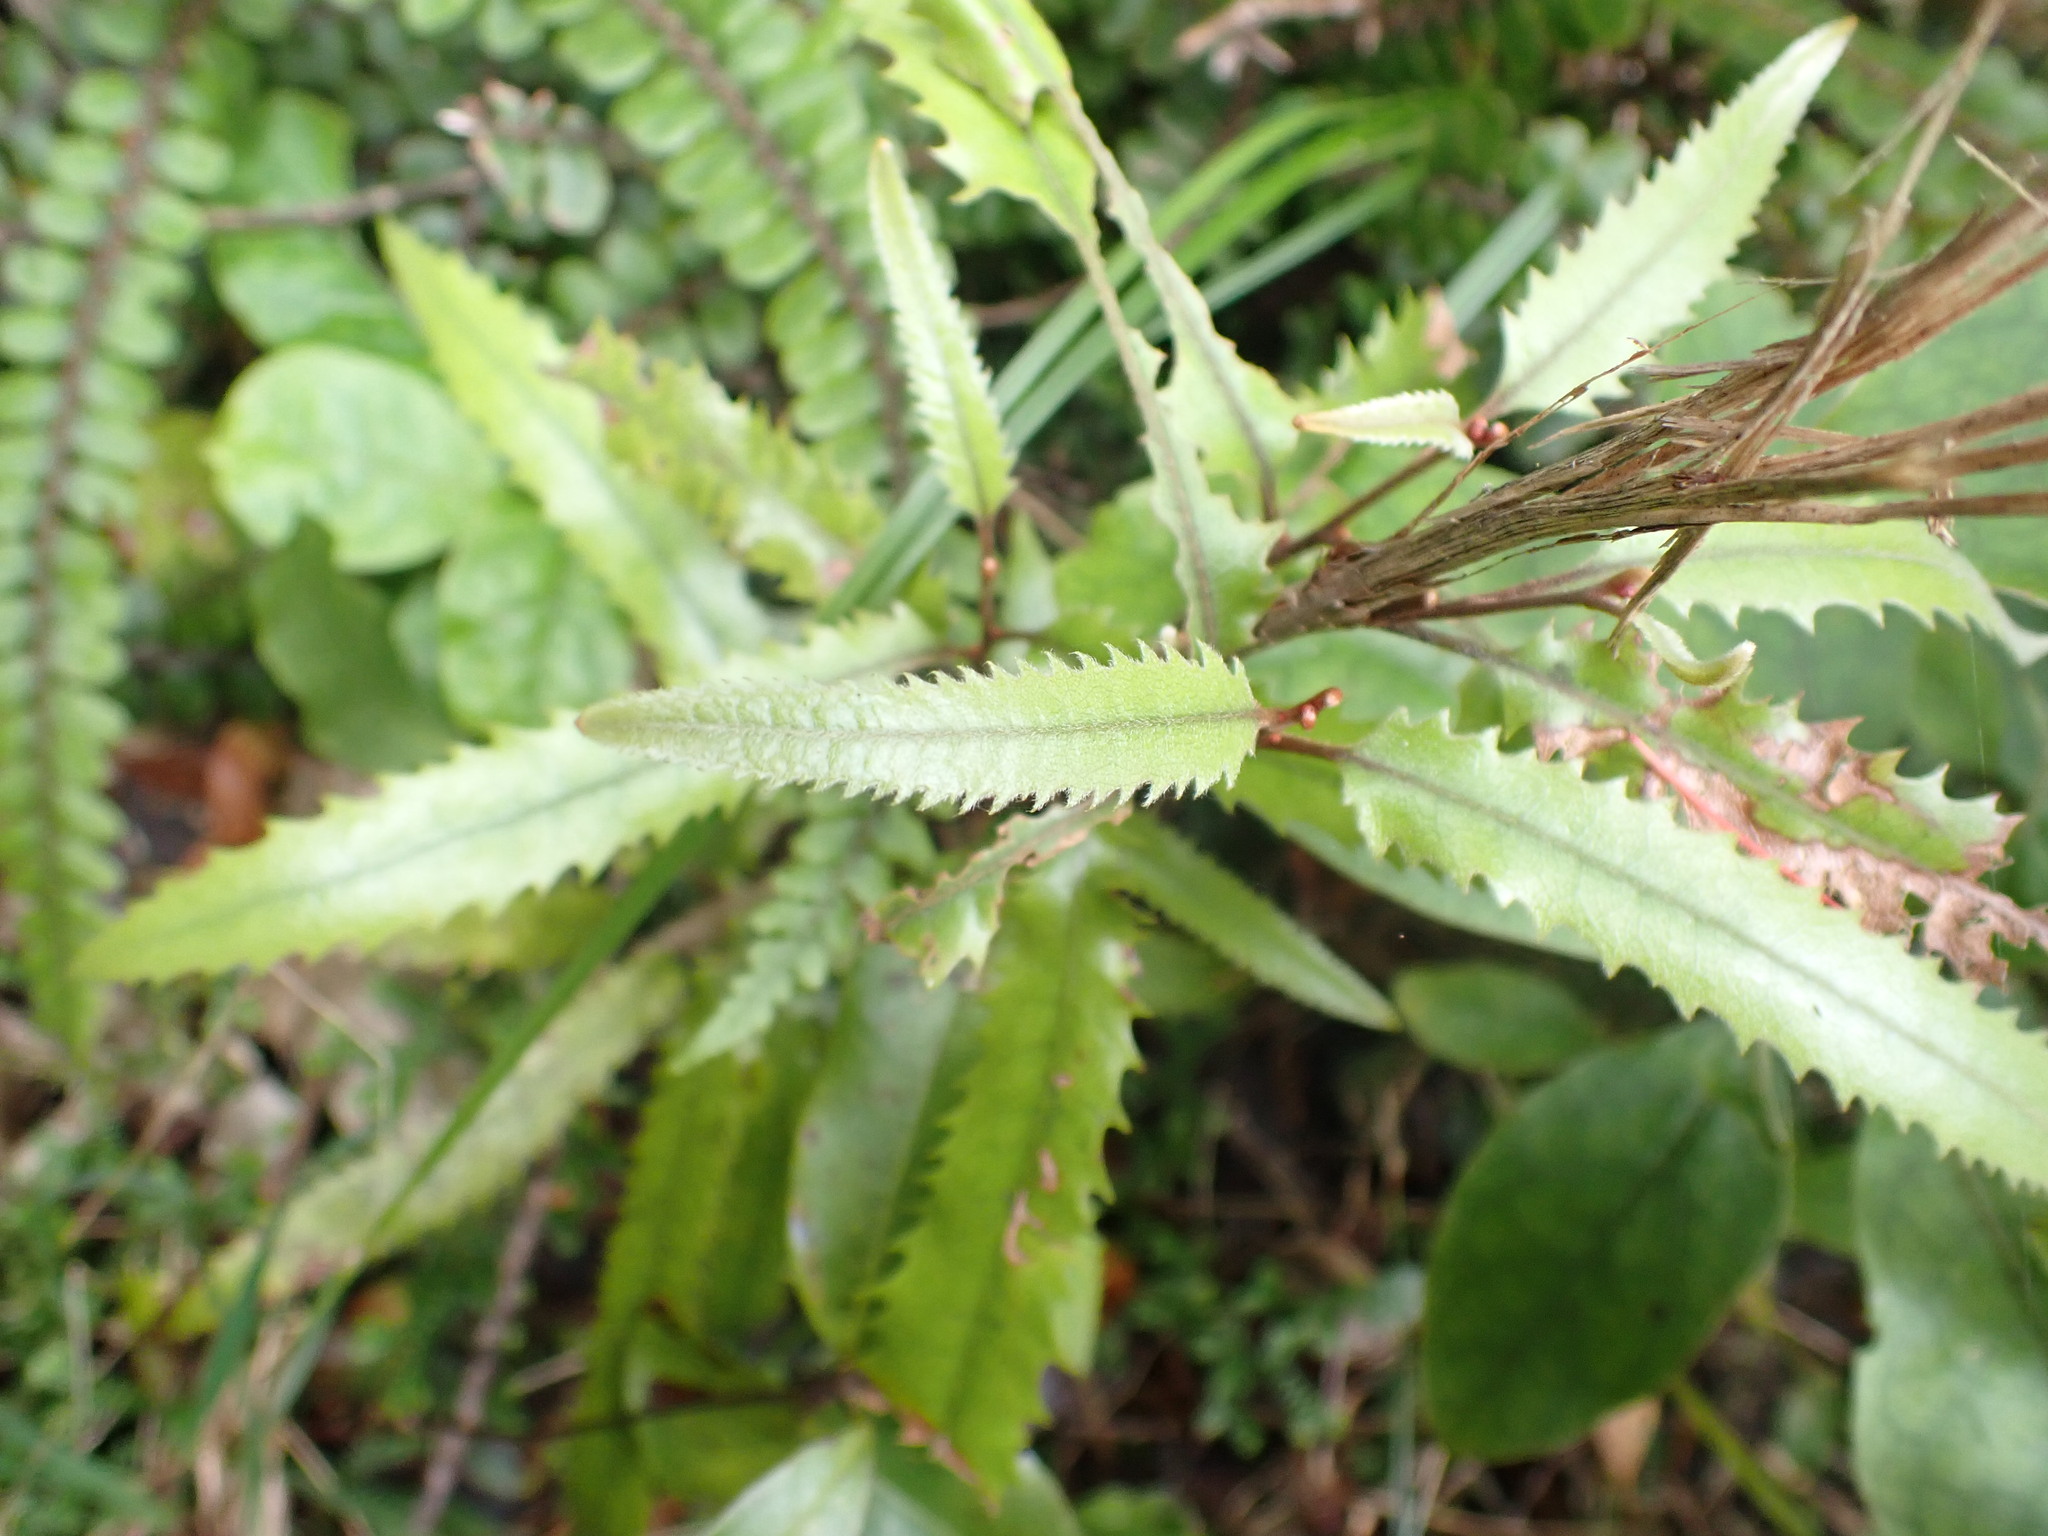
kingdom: Plantae
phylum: Tracheophyta
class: Magnoliopsida
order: Proteales
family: Proteaceae
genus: Knightia
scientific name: Knightia excelsa
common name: New zealand-honeysuckle
